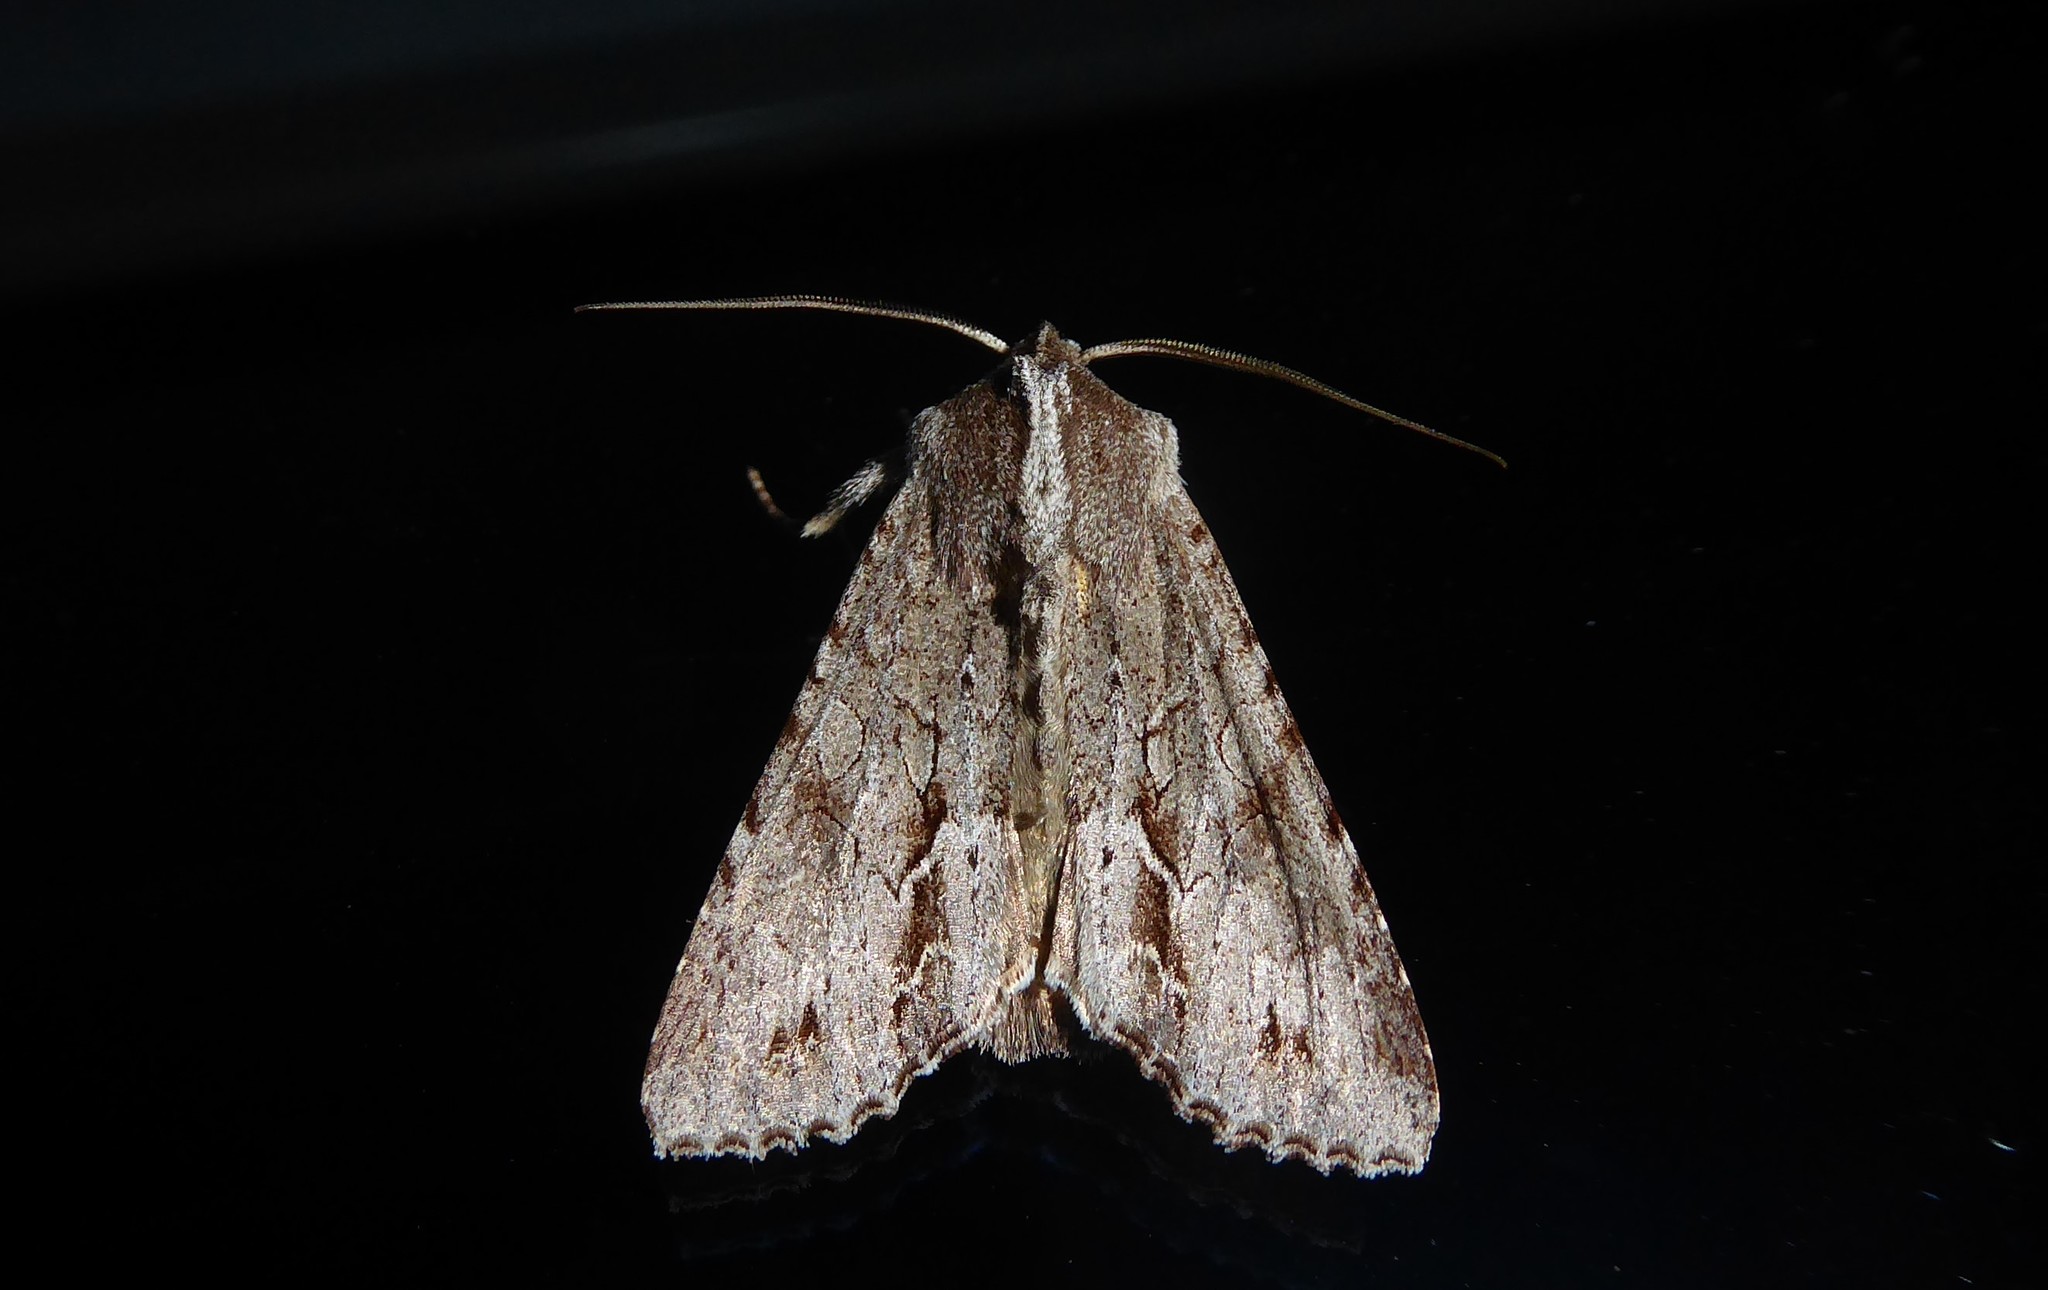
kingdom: Animalia
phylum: Arthropoda
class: Insecta
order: Lepidoptera
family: Noctuidae
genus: Ichneutica
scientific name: Ichneutica
